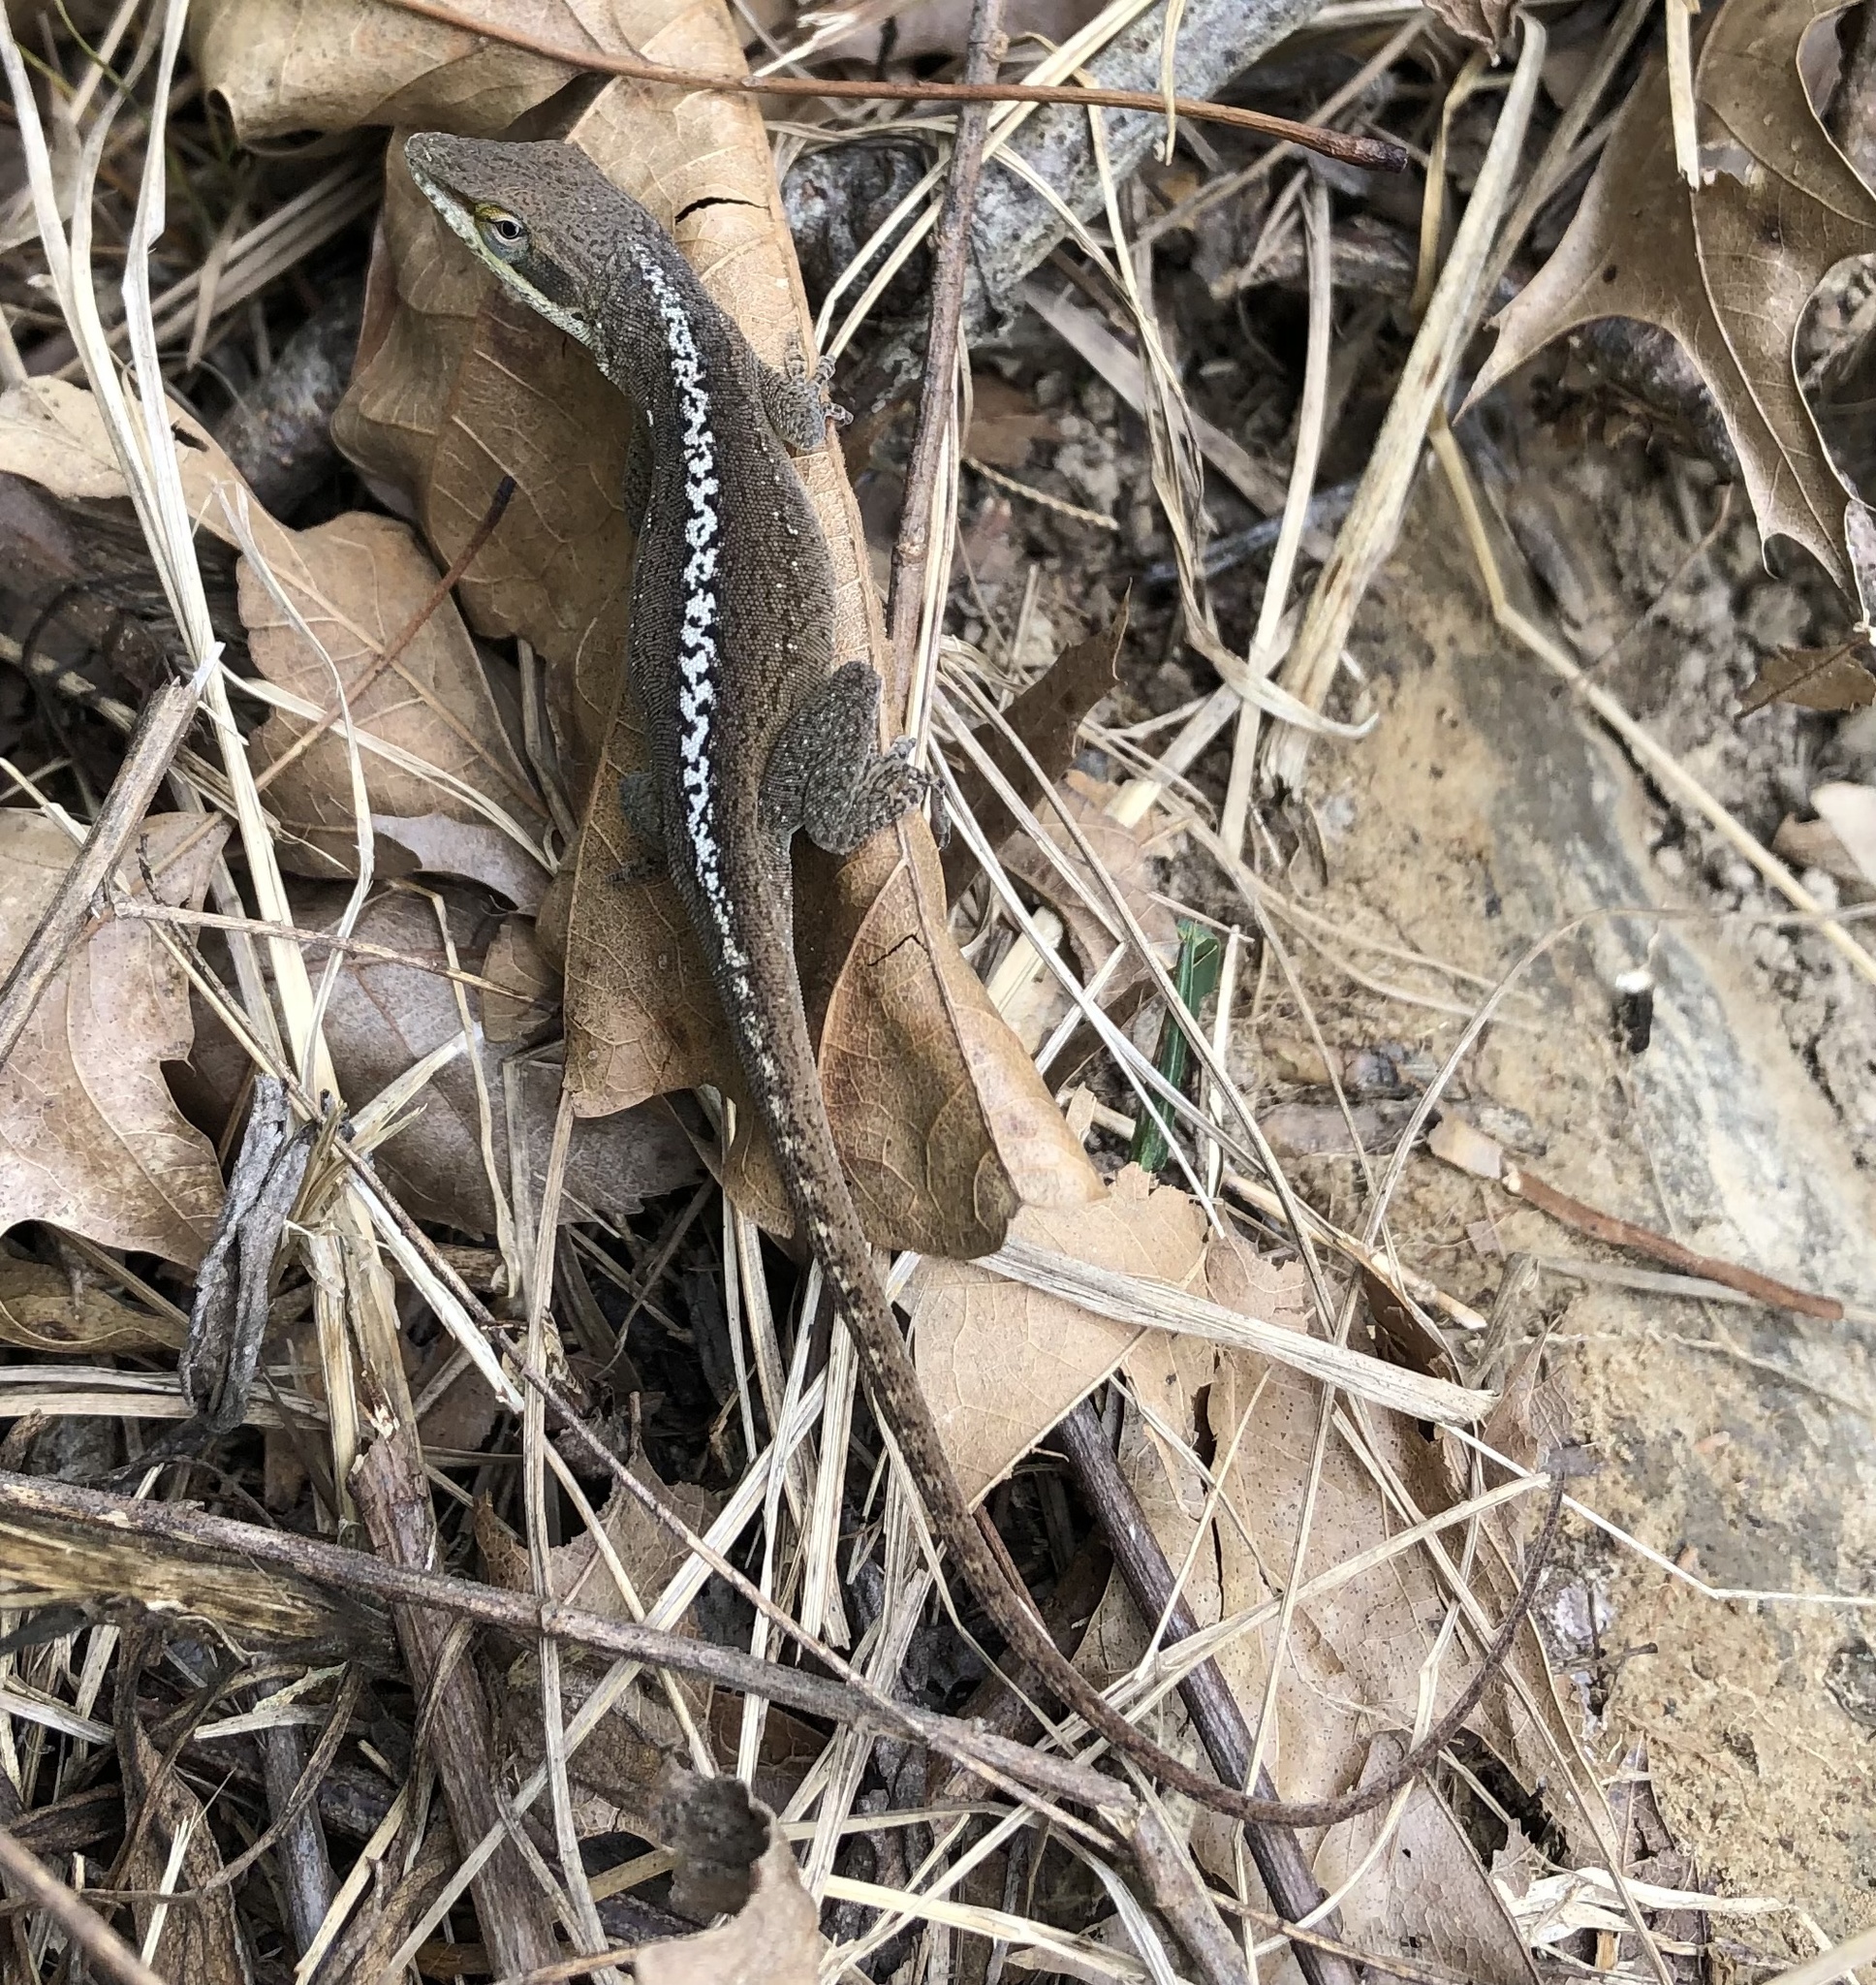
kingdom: Animalia
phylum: Chordata
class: Squamata
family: Dactyloidae
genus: Anolis
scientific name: Anolis carolinensis
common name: Green anole
